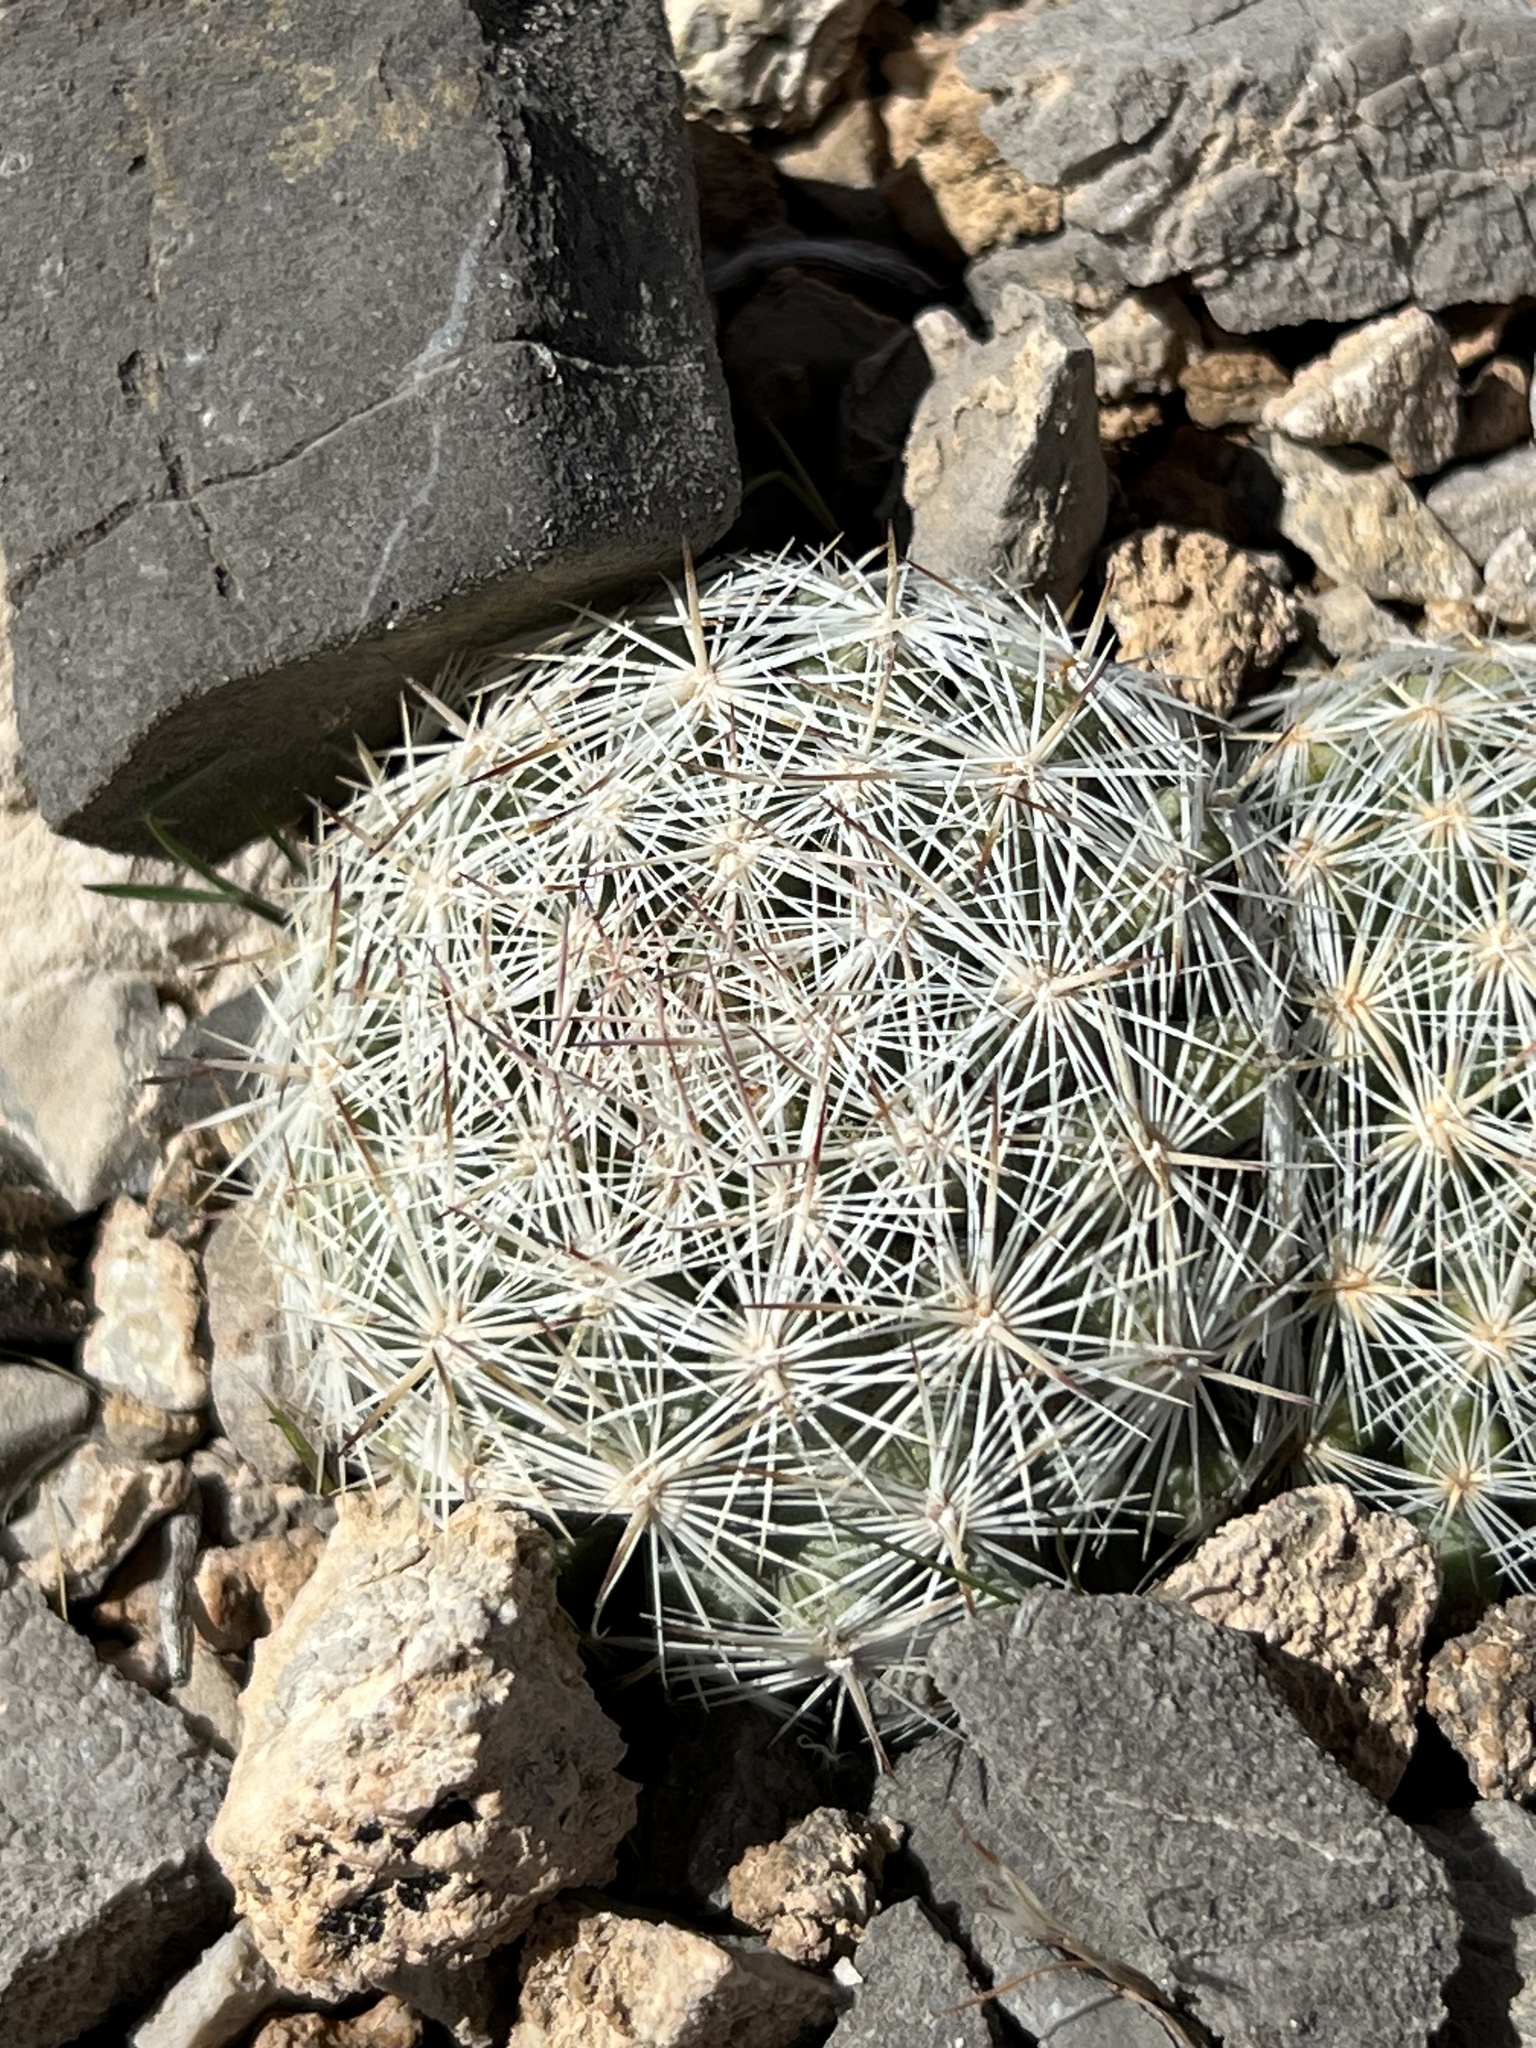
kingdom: Plantae
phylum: Tracheophyta
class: Magnoliopsida
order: Caryophyllales
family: Cactaceae
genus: Pelecyphora
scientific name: Pelecyphora dasyacantha
